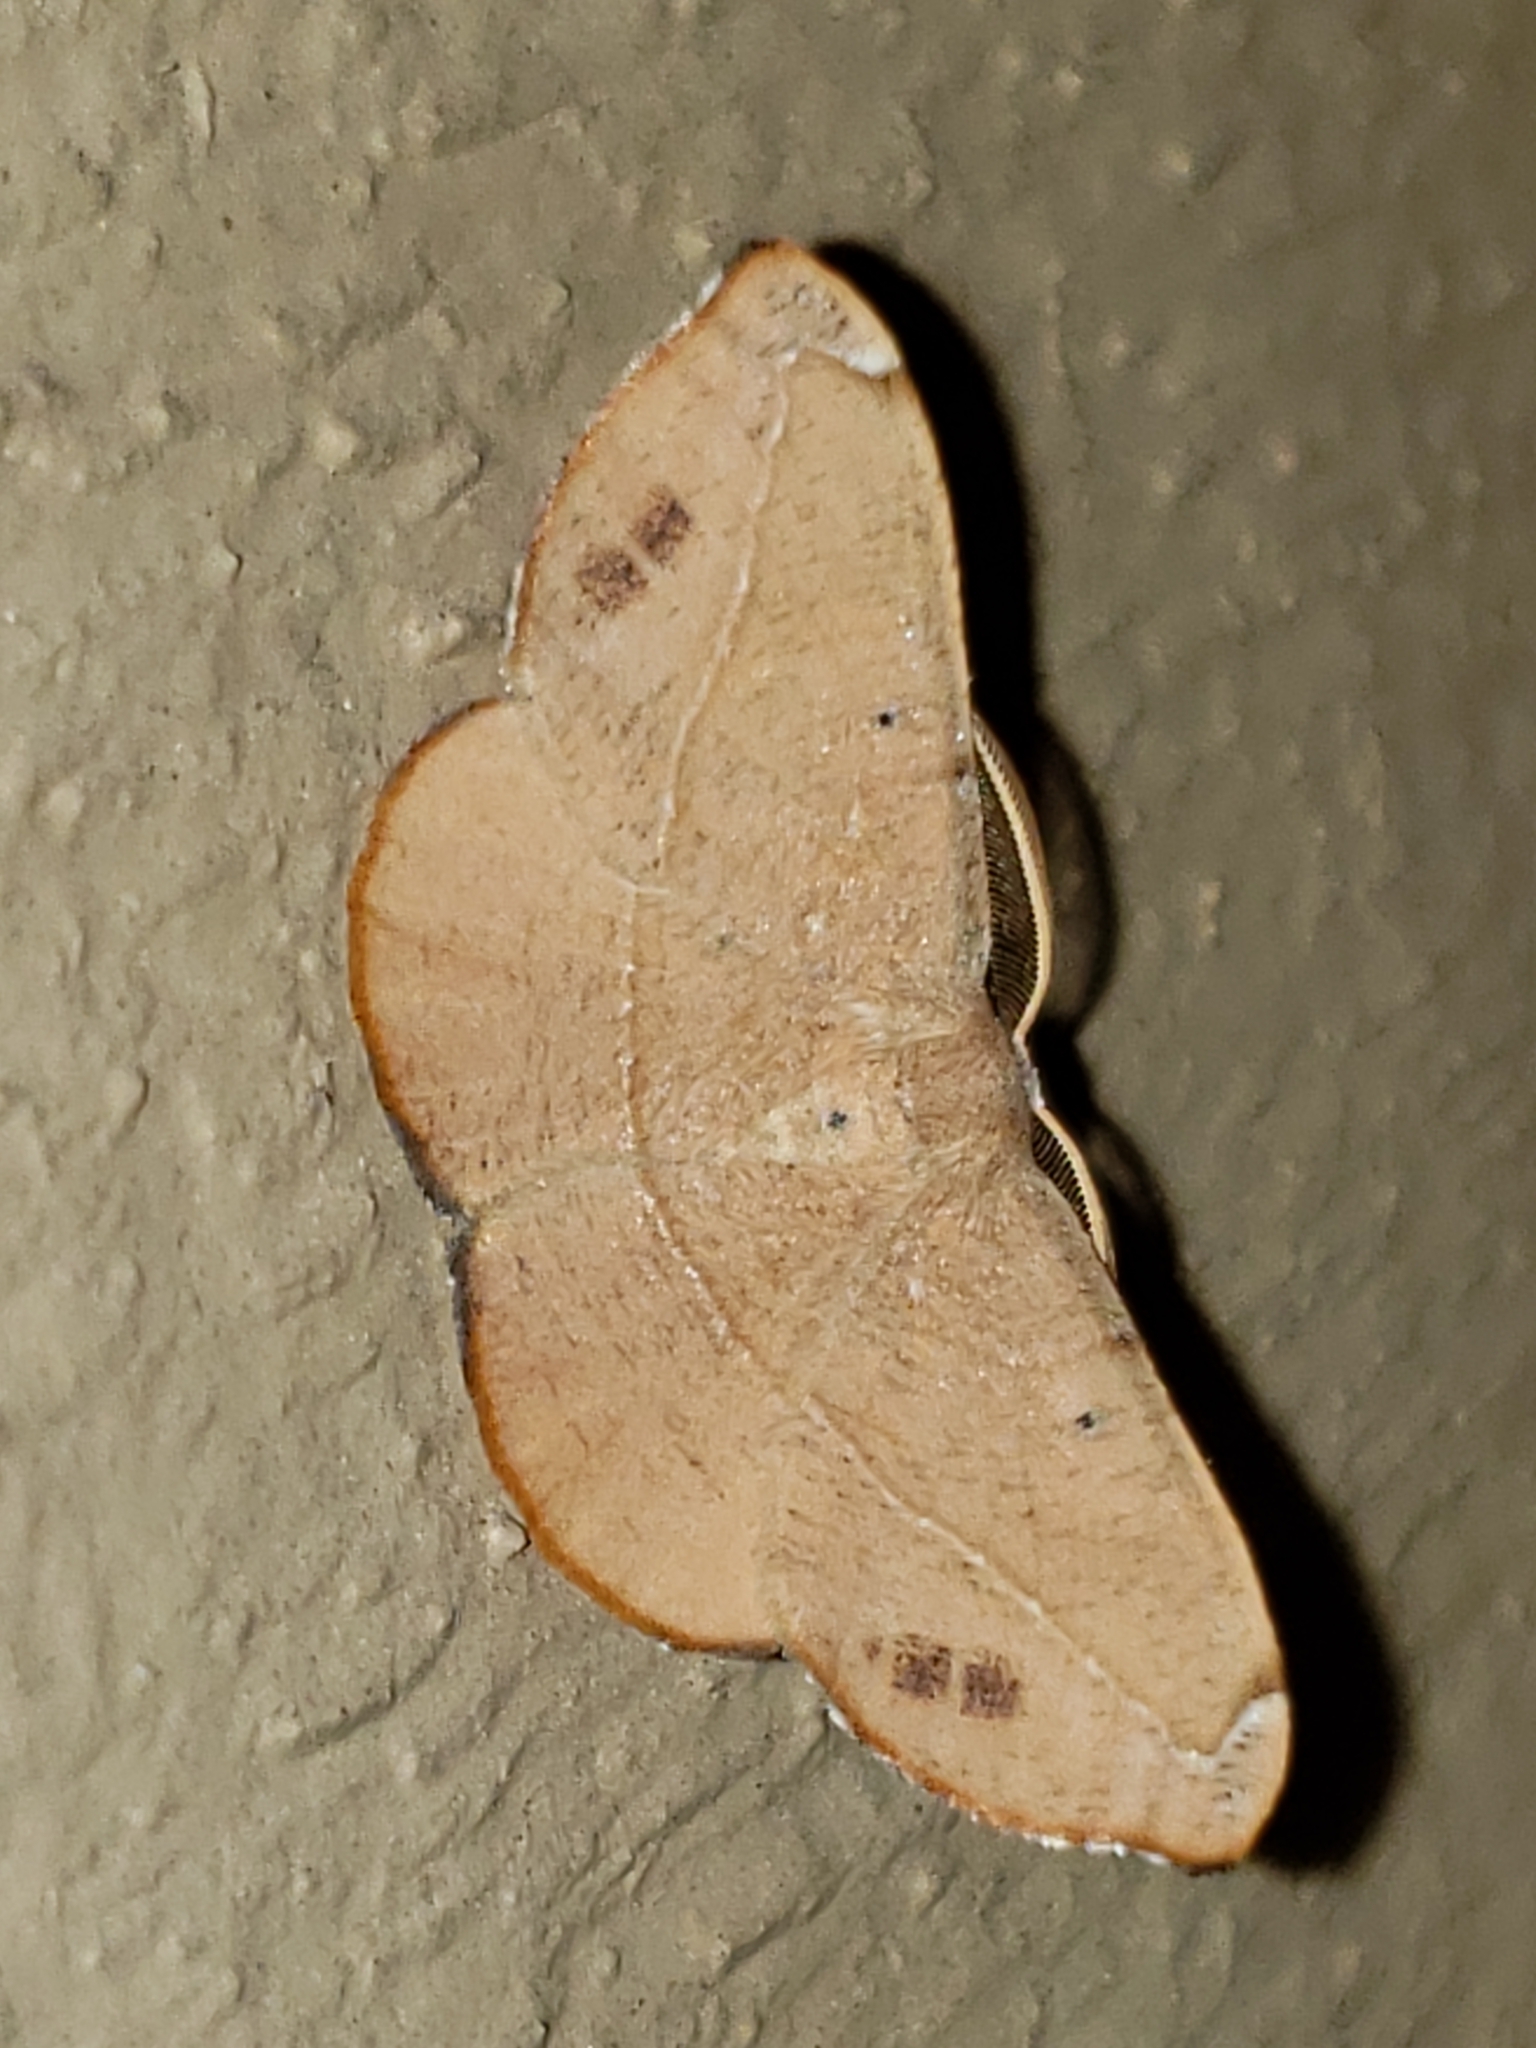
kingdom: Animalia
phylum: Arthropoda
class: Insecta
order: Lepidoptera
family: Geometridae
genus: Patalene
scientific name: Patalene olyzonaria
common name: Juniper geometer moth
